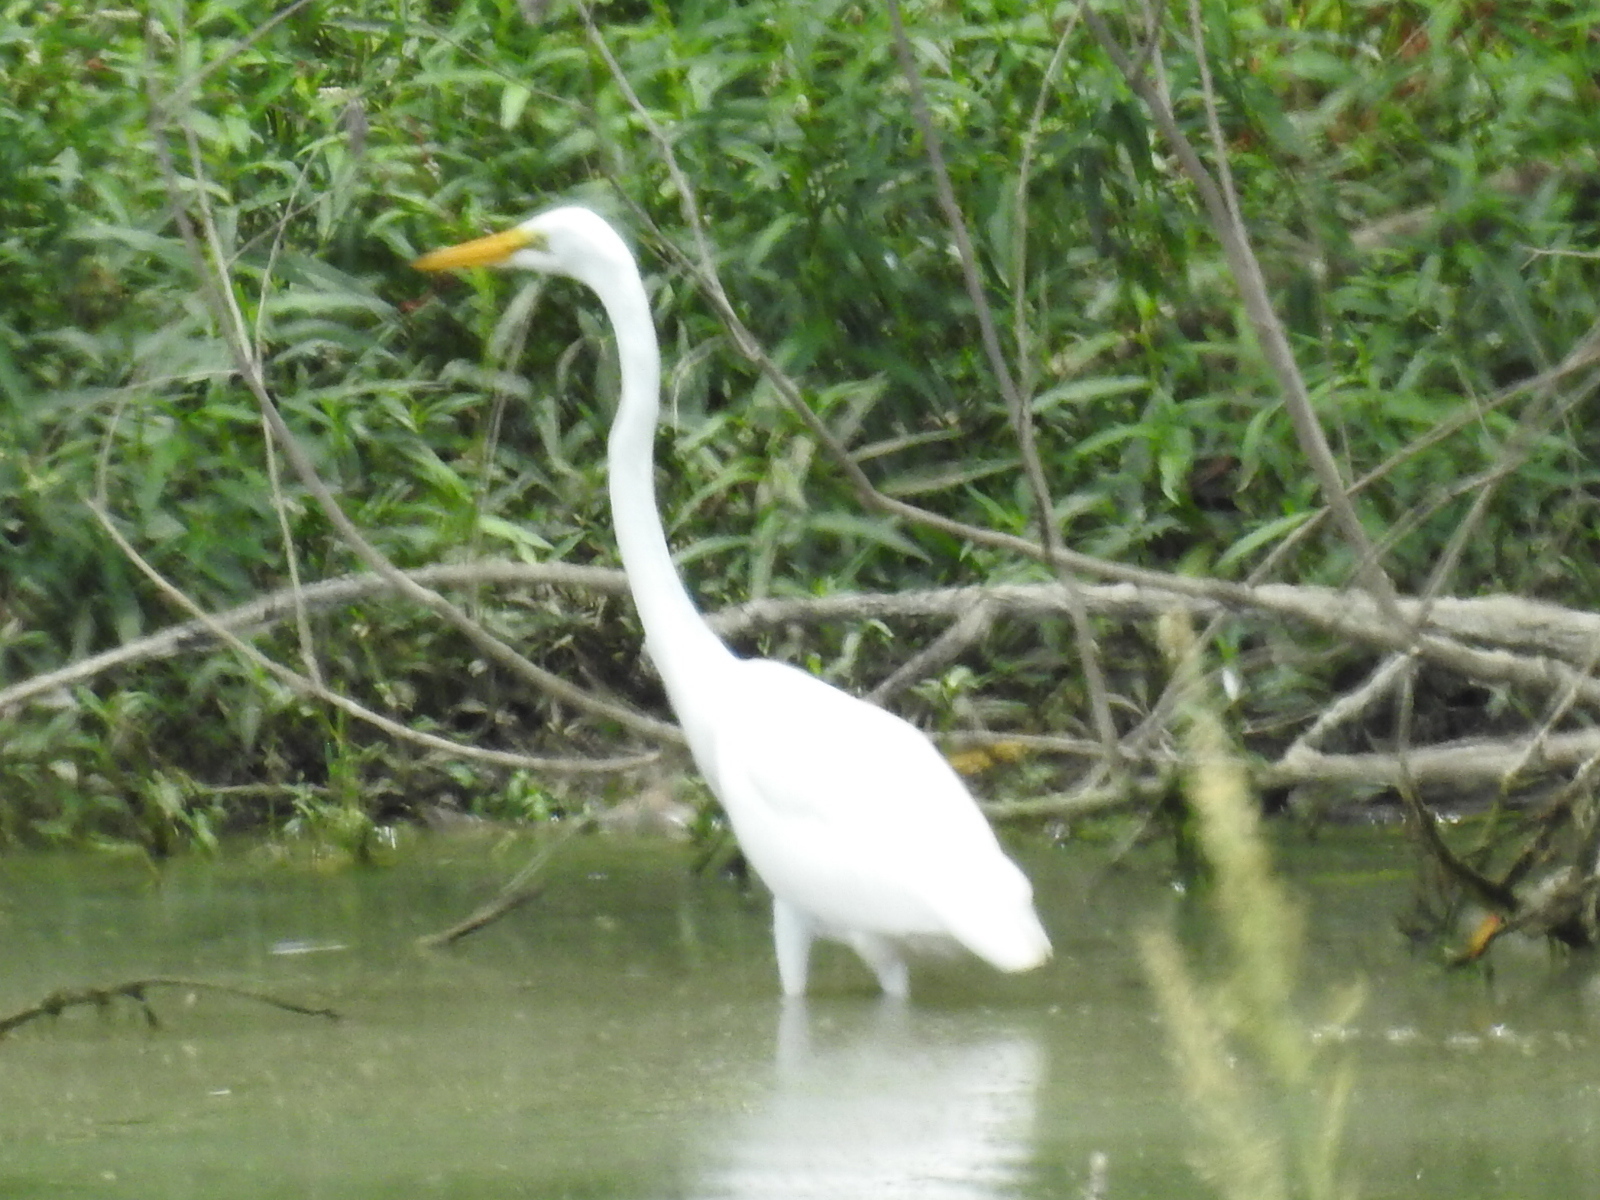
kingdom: Animalia
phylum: Chordata
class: Aves
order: Pelecaniformes
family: Ardeidae
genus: Ardea
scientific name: Ardea alba
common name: Great egret
